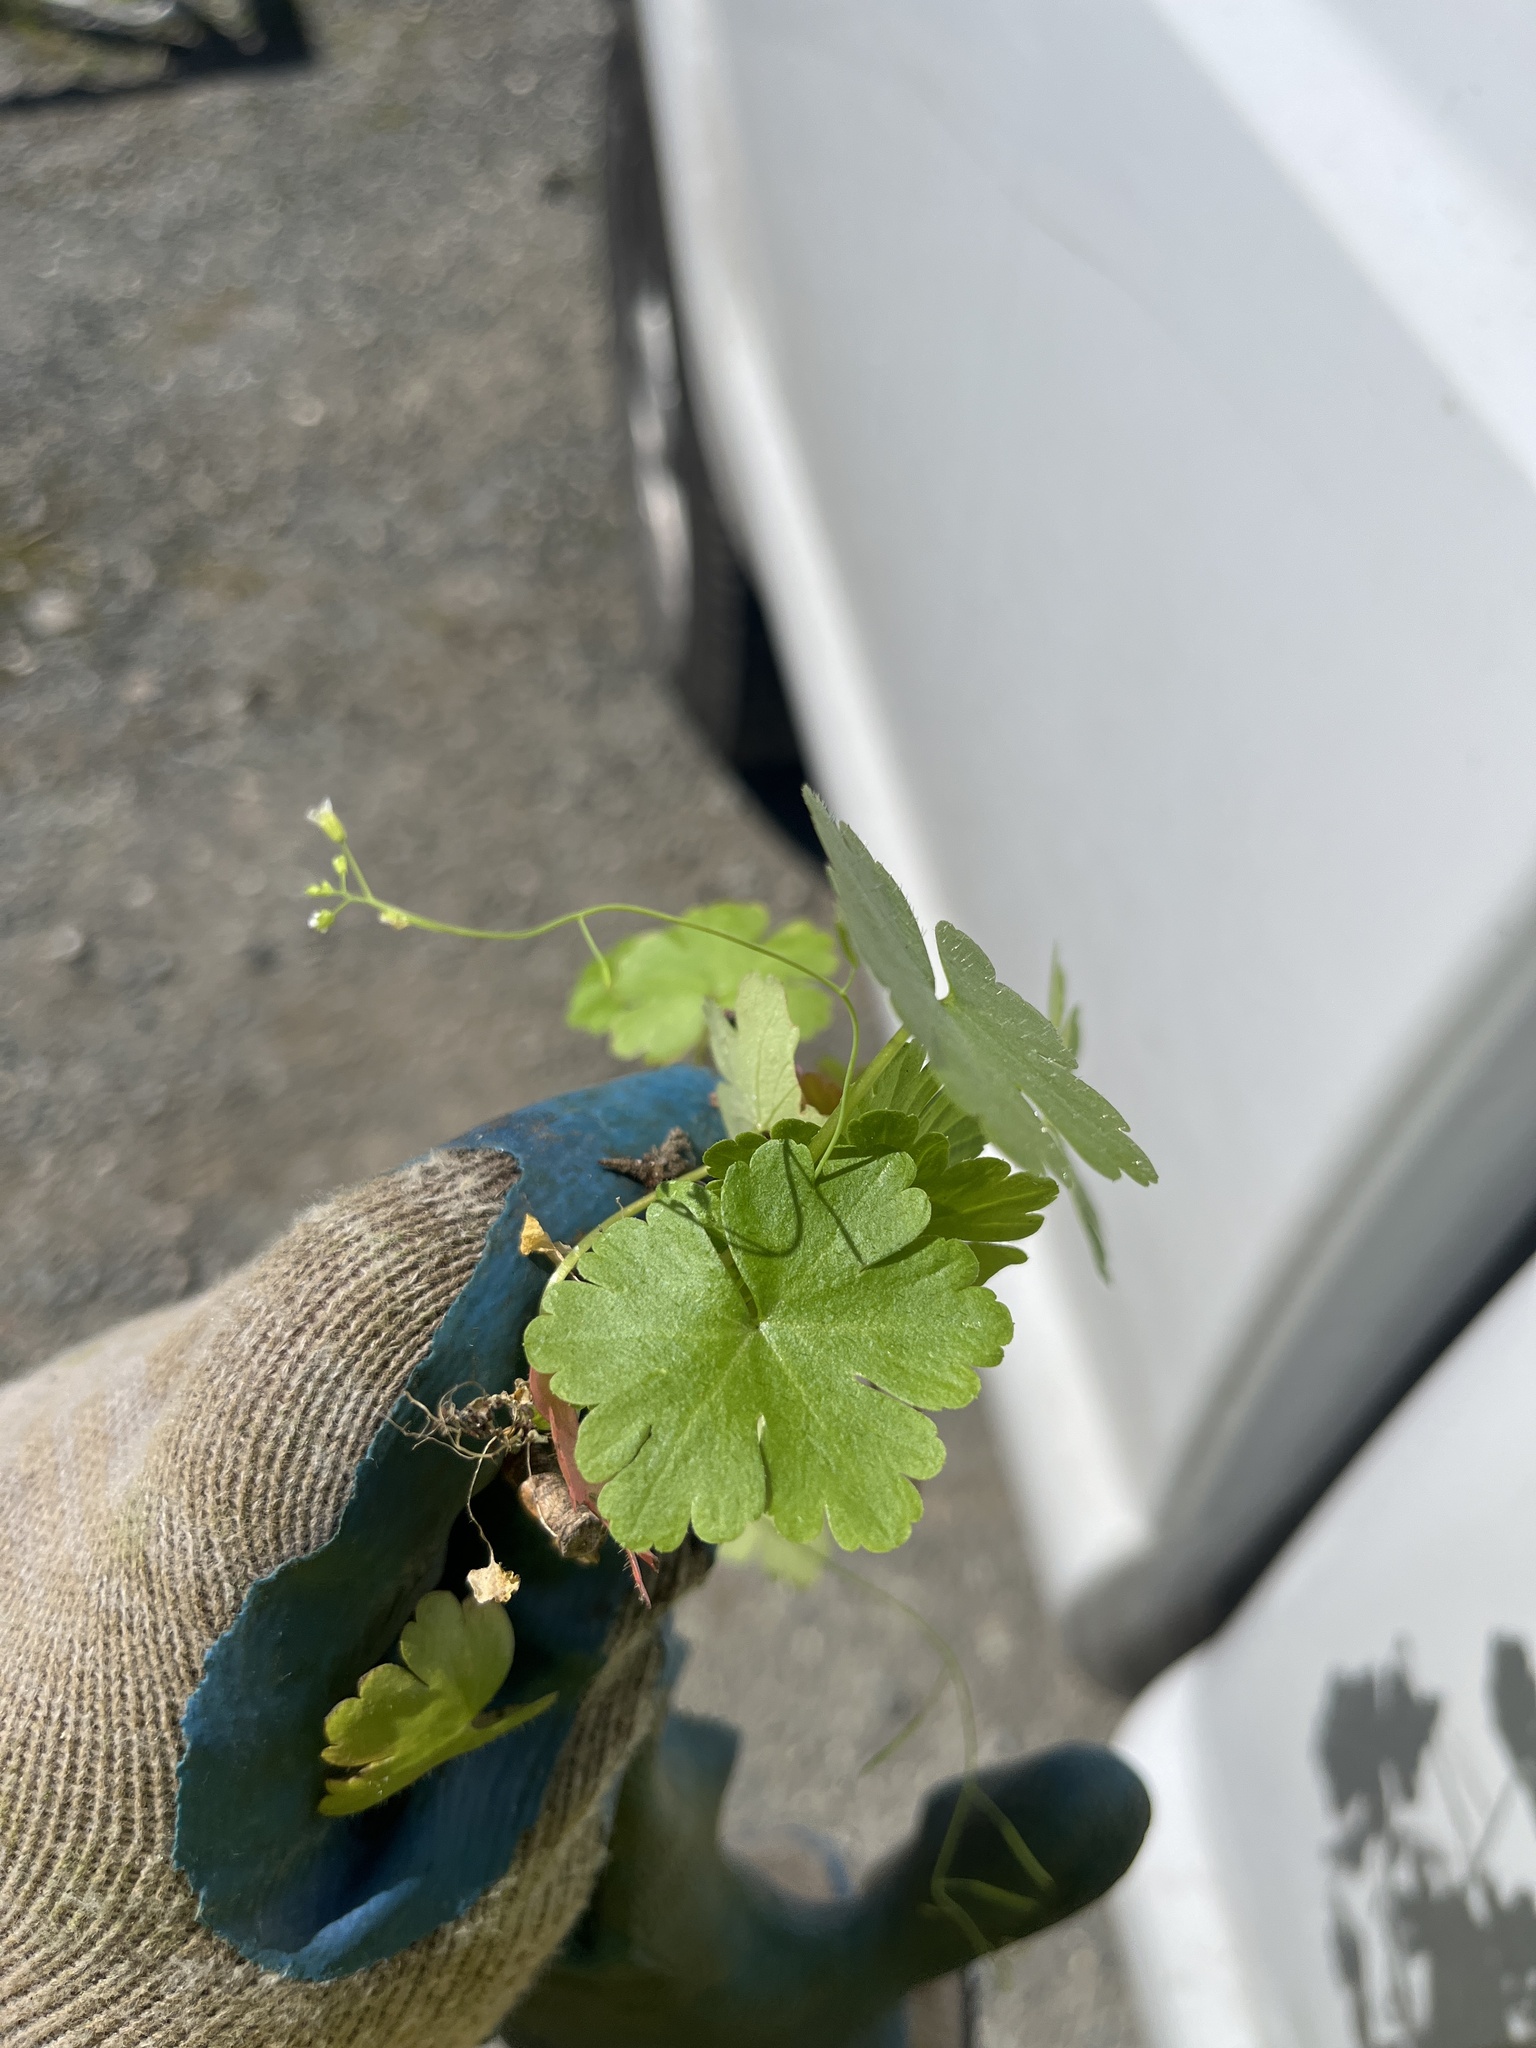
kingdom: Plantae
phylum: Tracheophyta
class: Magnoliopsida
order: Geraniales
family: Geraniaceae
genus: Geranium
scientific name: Geranium lucidum
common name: Shining crane's-bill
